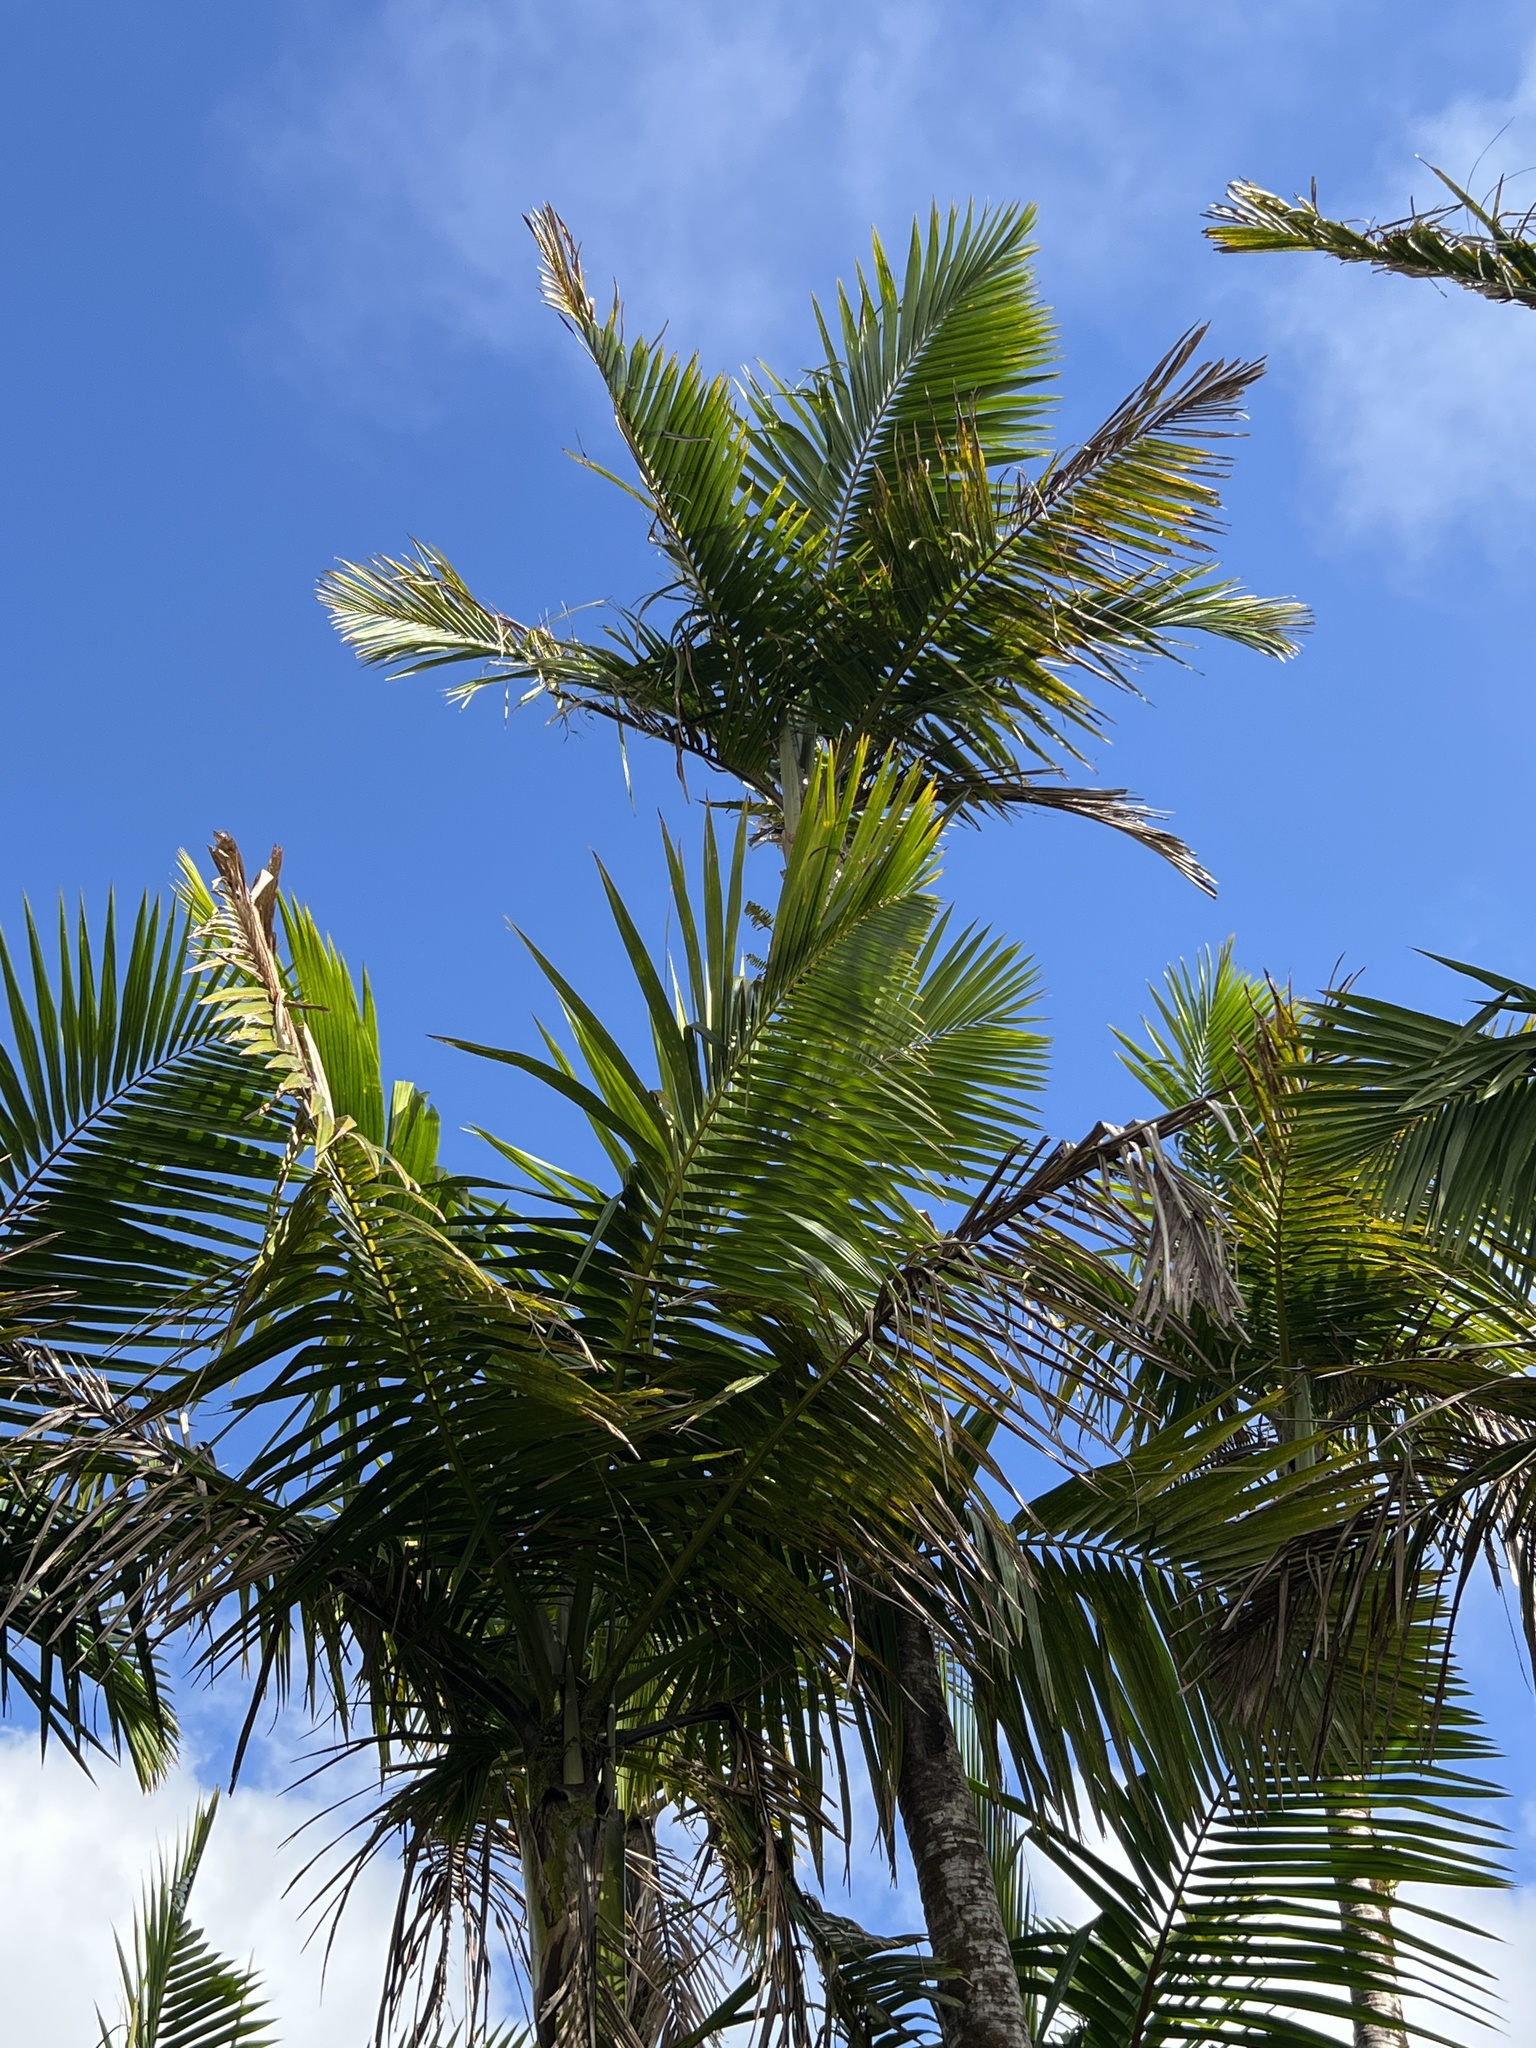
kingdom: Plantae
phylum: Tracheophyta
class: Liliopsida
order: Arecales
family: Arecaceae
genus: Prestoea
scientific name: Prestoea acuminata
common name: Sierran palm
